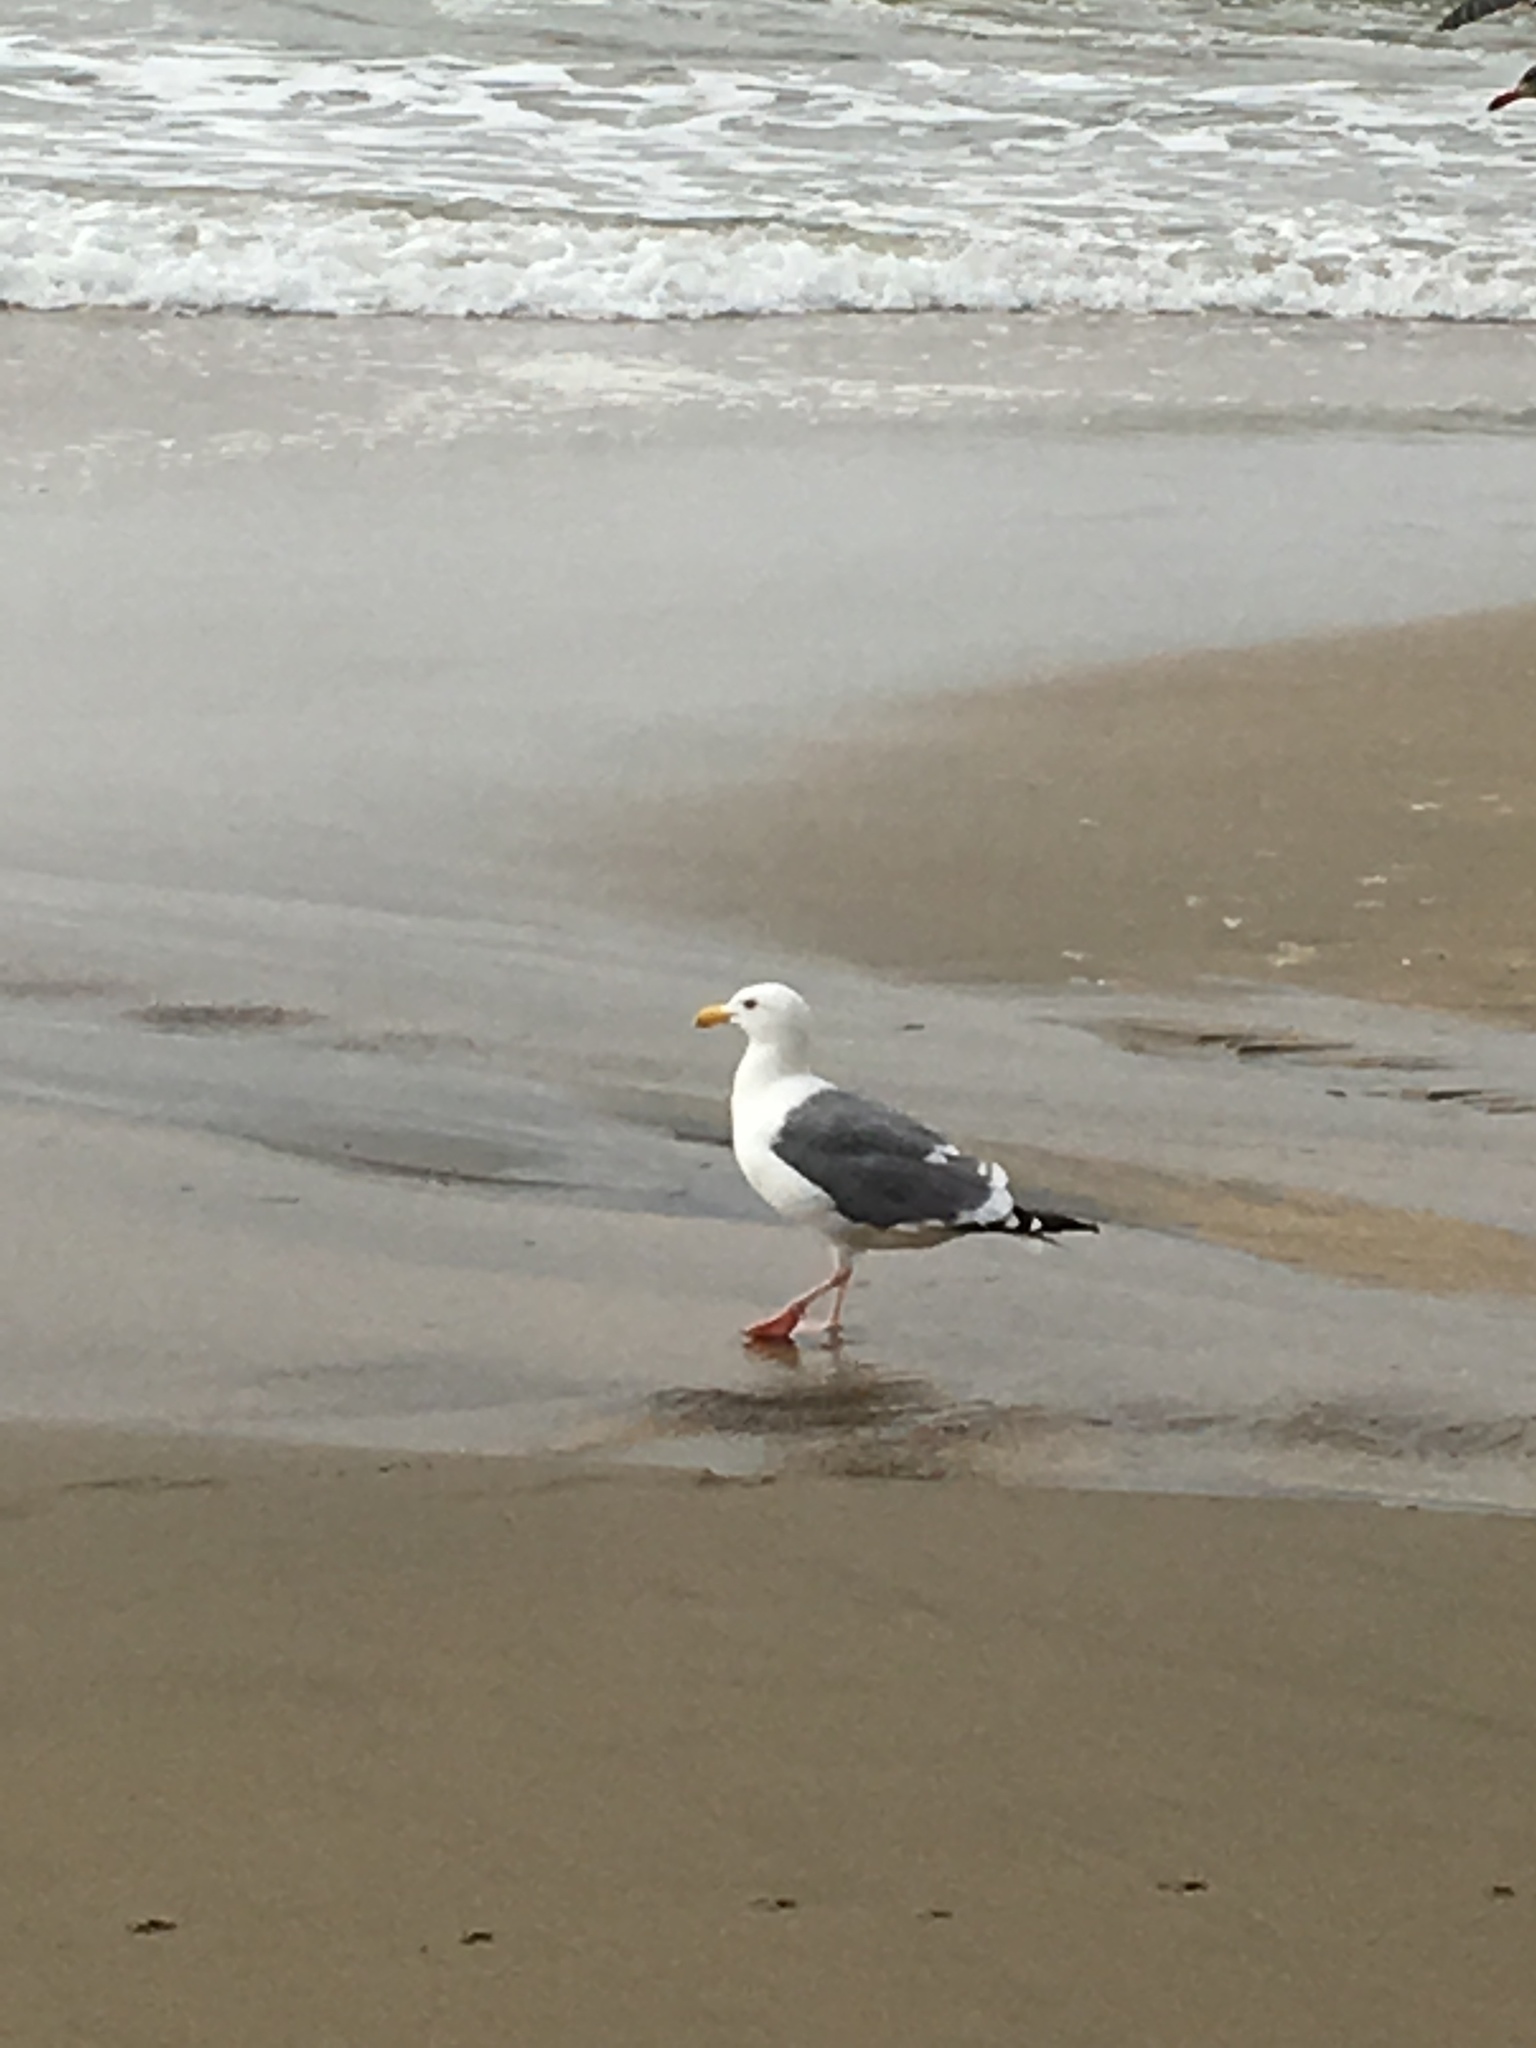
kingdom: Animalia
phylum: Chordata
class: Aves
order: Charadriiformes
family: Laridae
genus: Larus
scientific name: Larus occidentalis
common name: Western gull
